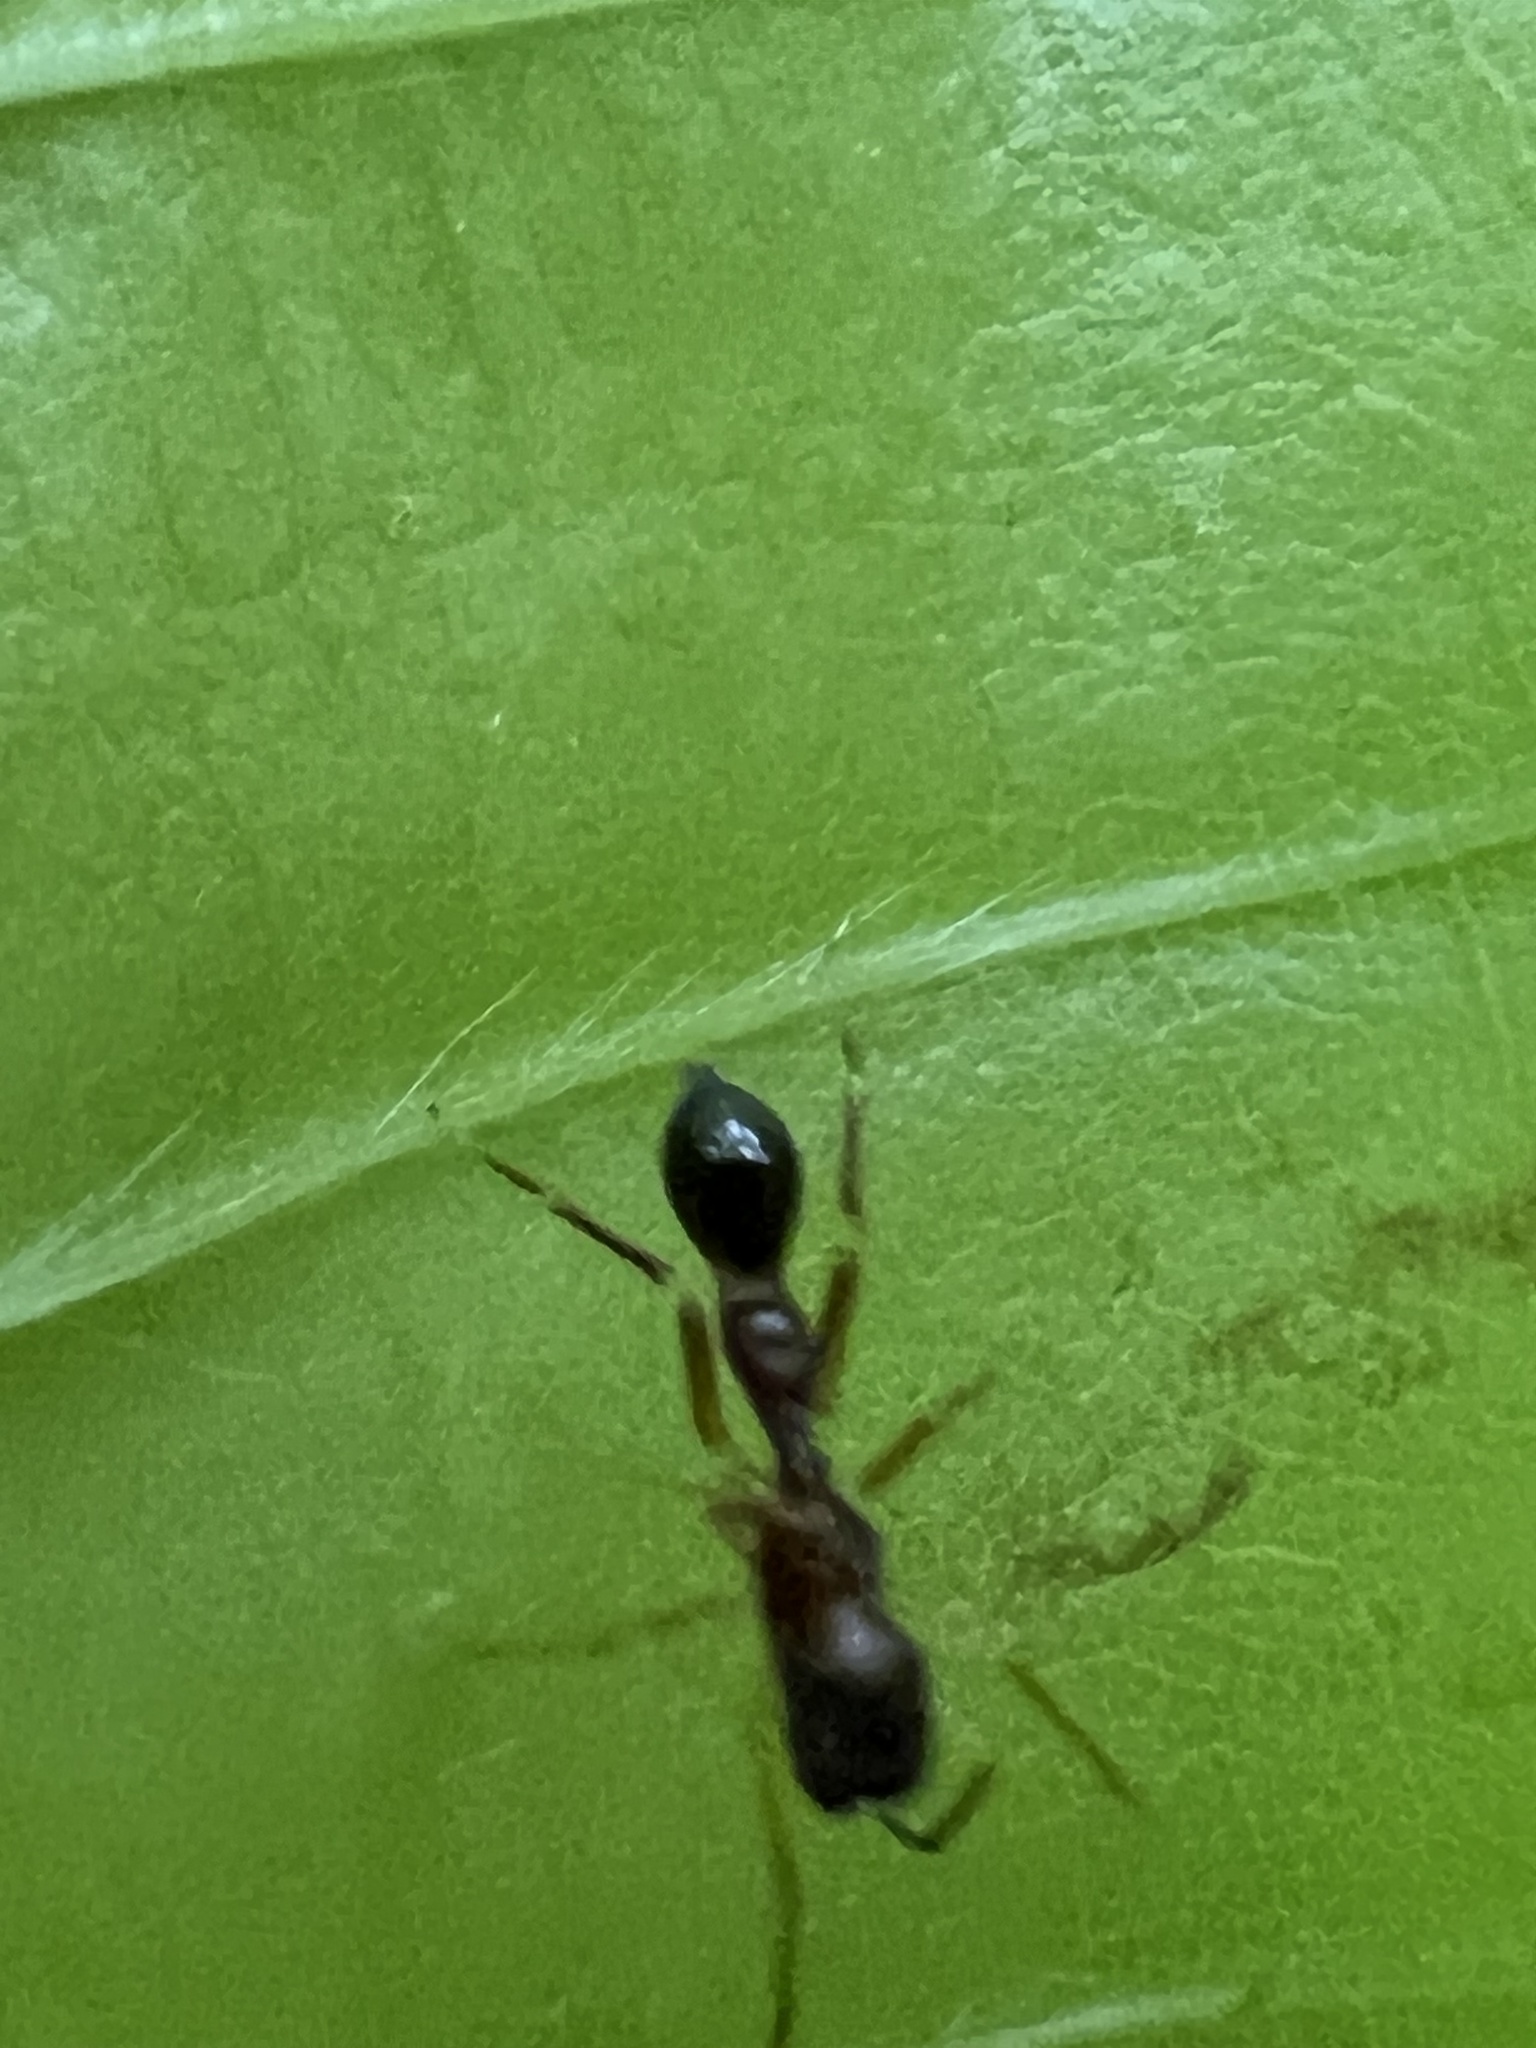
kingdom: Animalia
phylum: Arthropoda
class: Arachnida
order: Araneae
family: Salticidae
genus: Synemosyna
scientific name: Synemosyna formica
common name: Slender ant-mimic jumping spider
